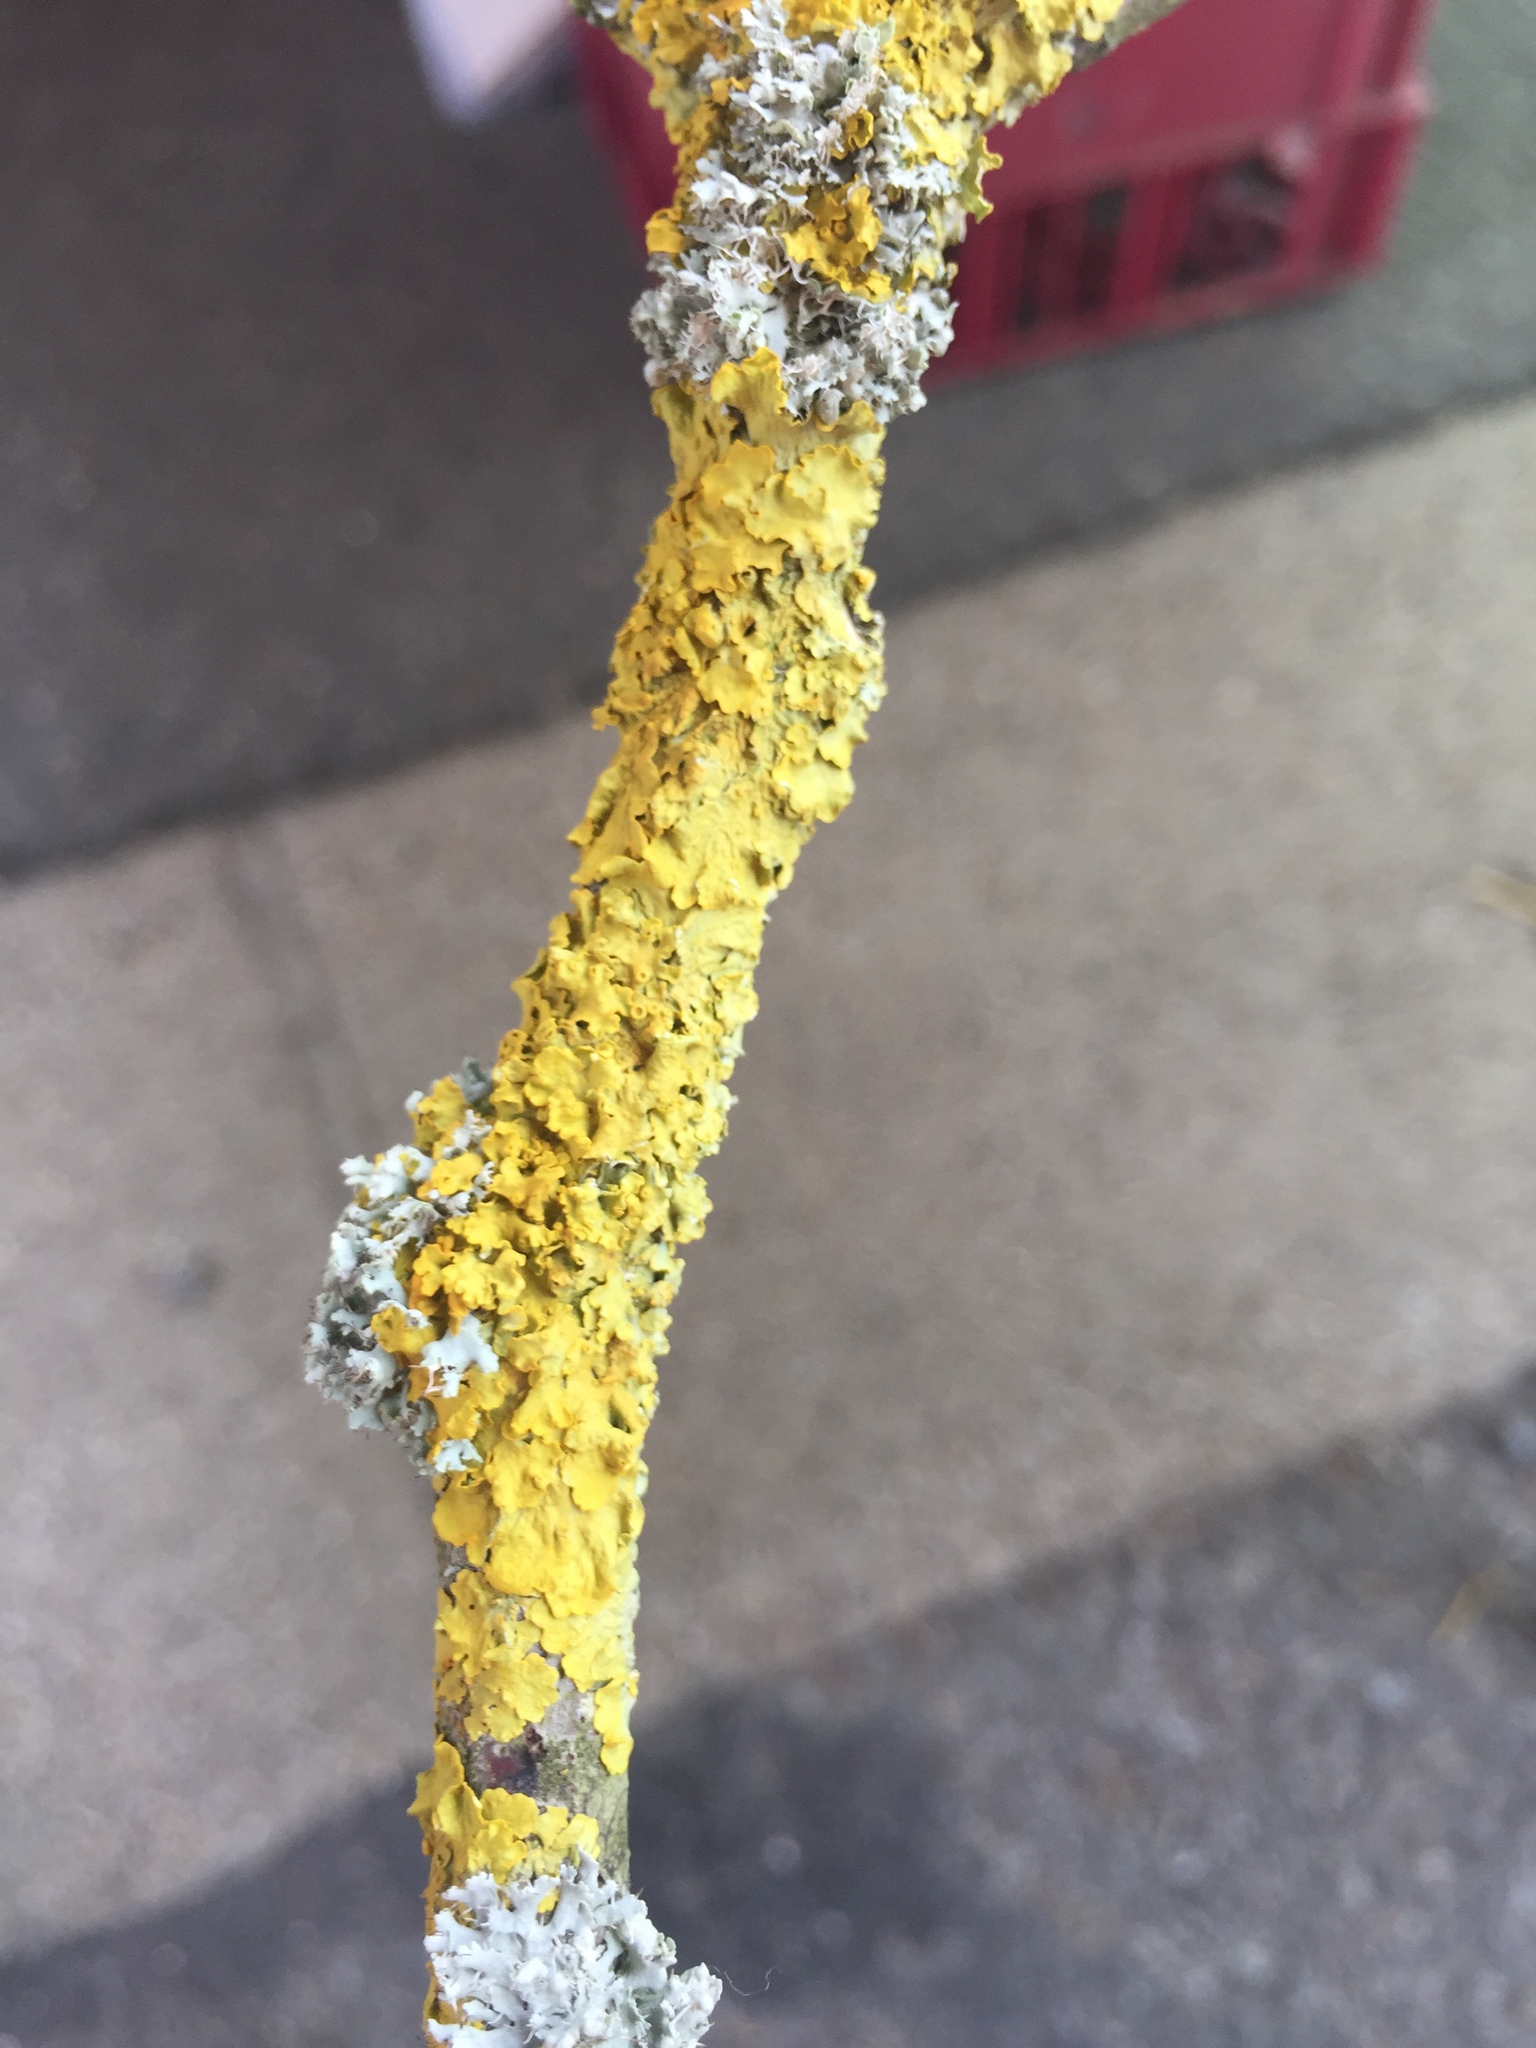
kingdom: Fungi
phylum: Ascomycota
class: Lecanoromycetes
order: Teloschistales
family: Teloschistaceae
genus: Xanthoria
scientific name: Xanthoria parietina
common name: Common orange lichen
